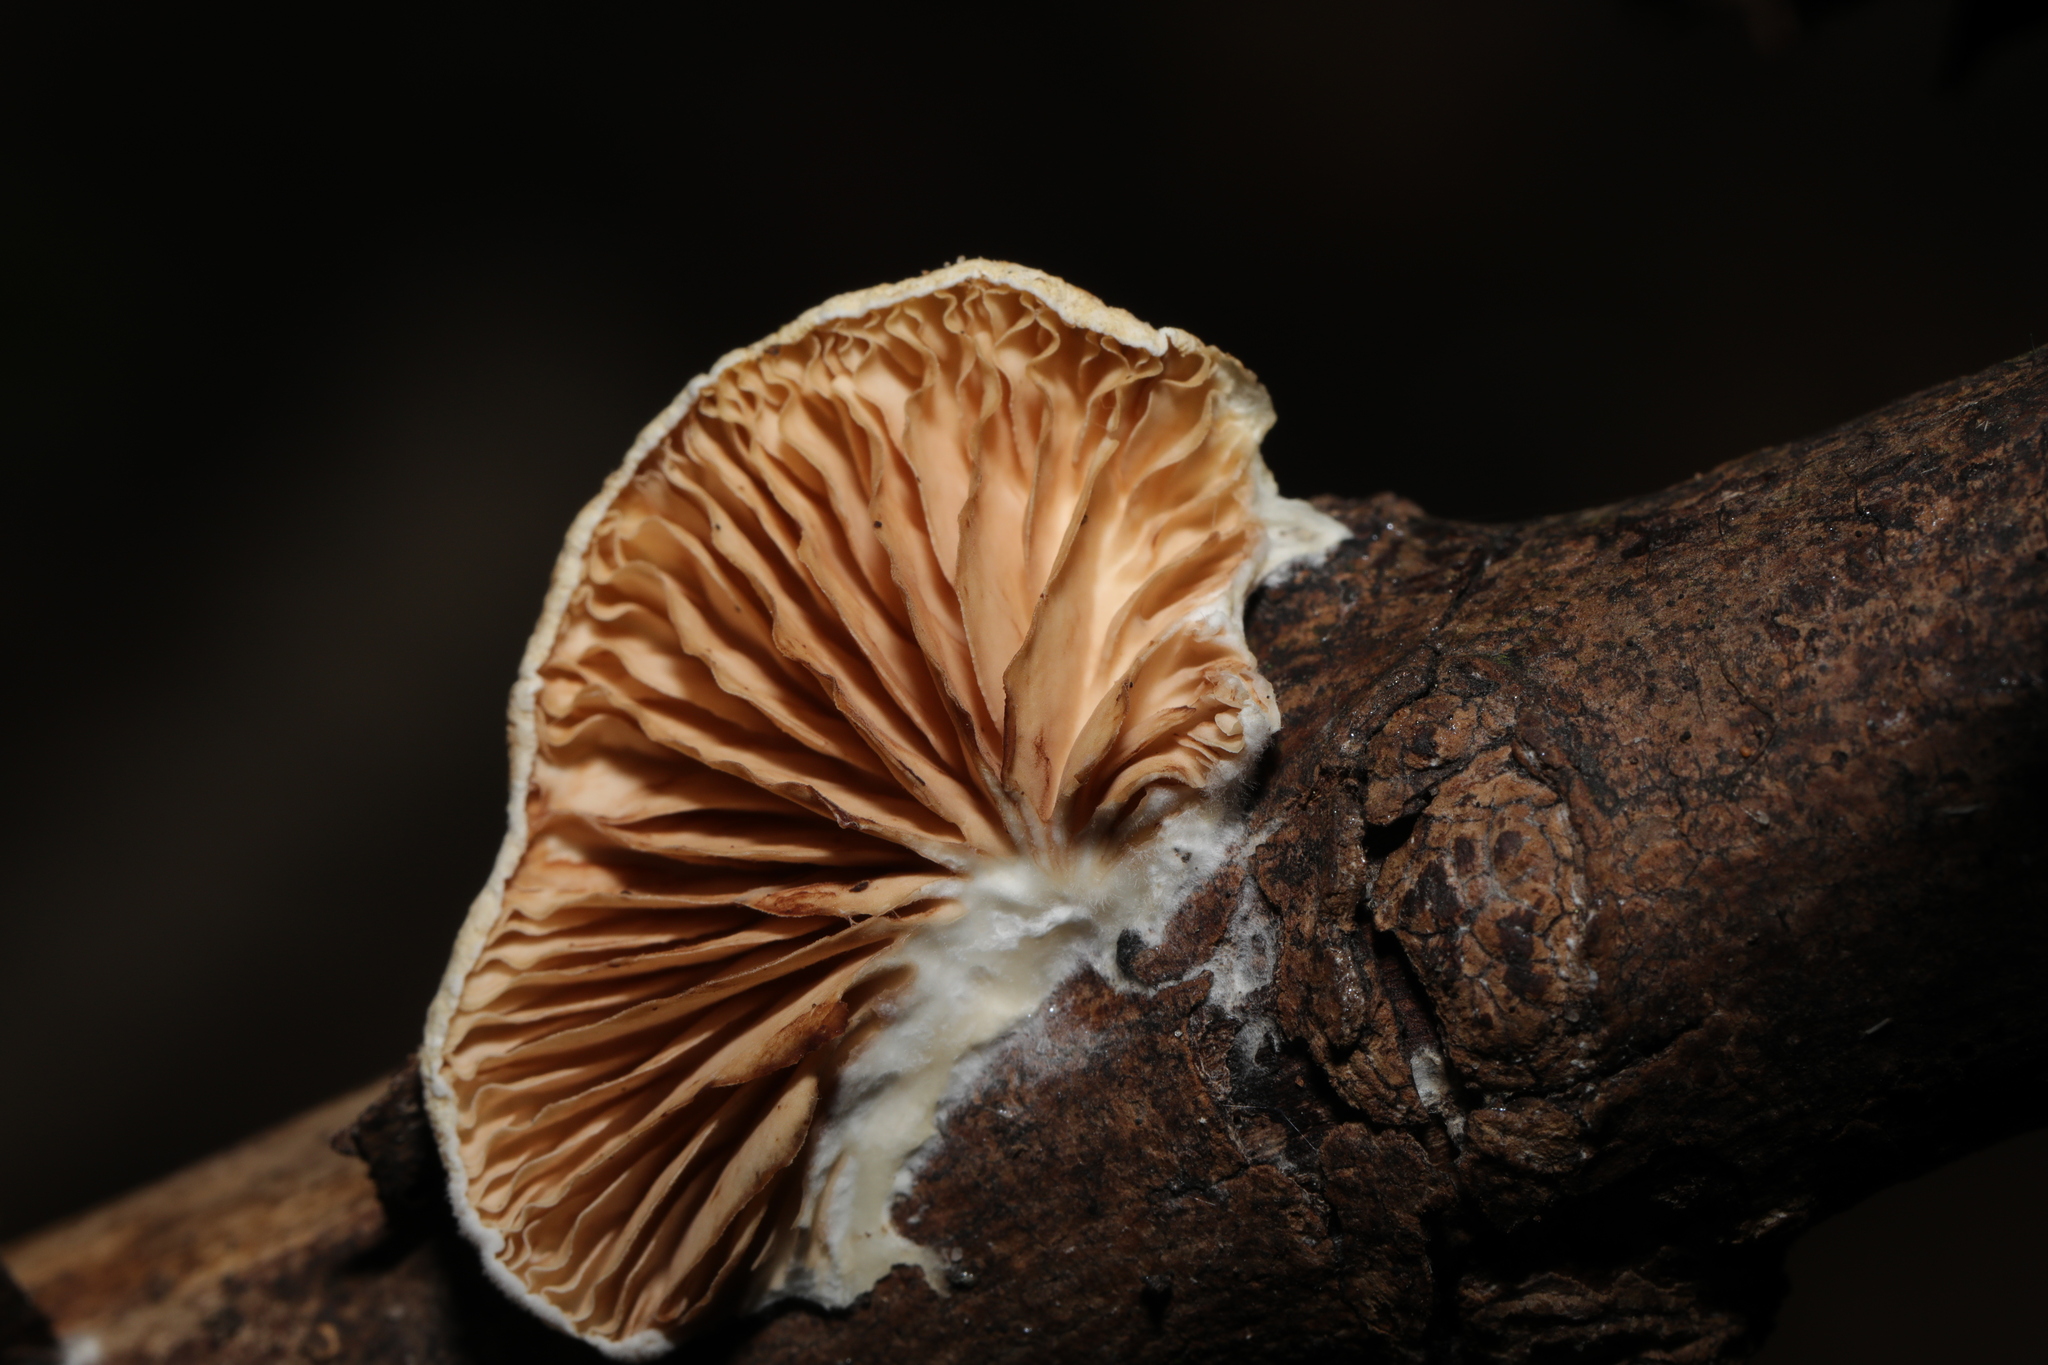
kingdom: Fungi
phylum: Basidiomycota
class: Agaricomycetes
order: Agaricales
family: Crepidotaceae
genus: Crepidotus
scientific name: Crepidotus
